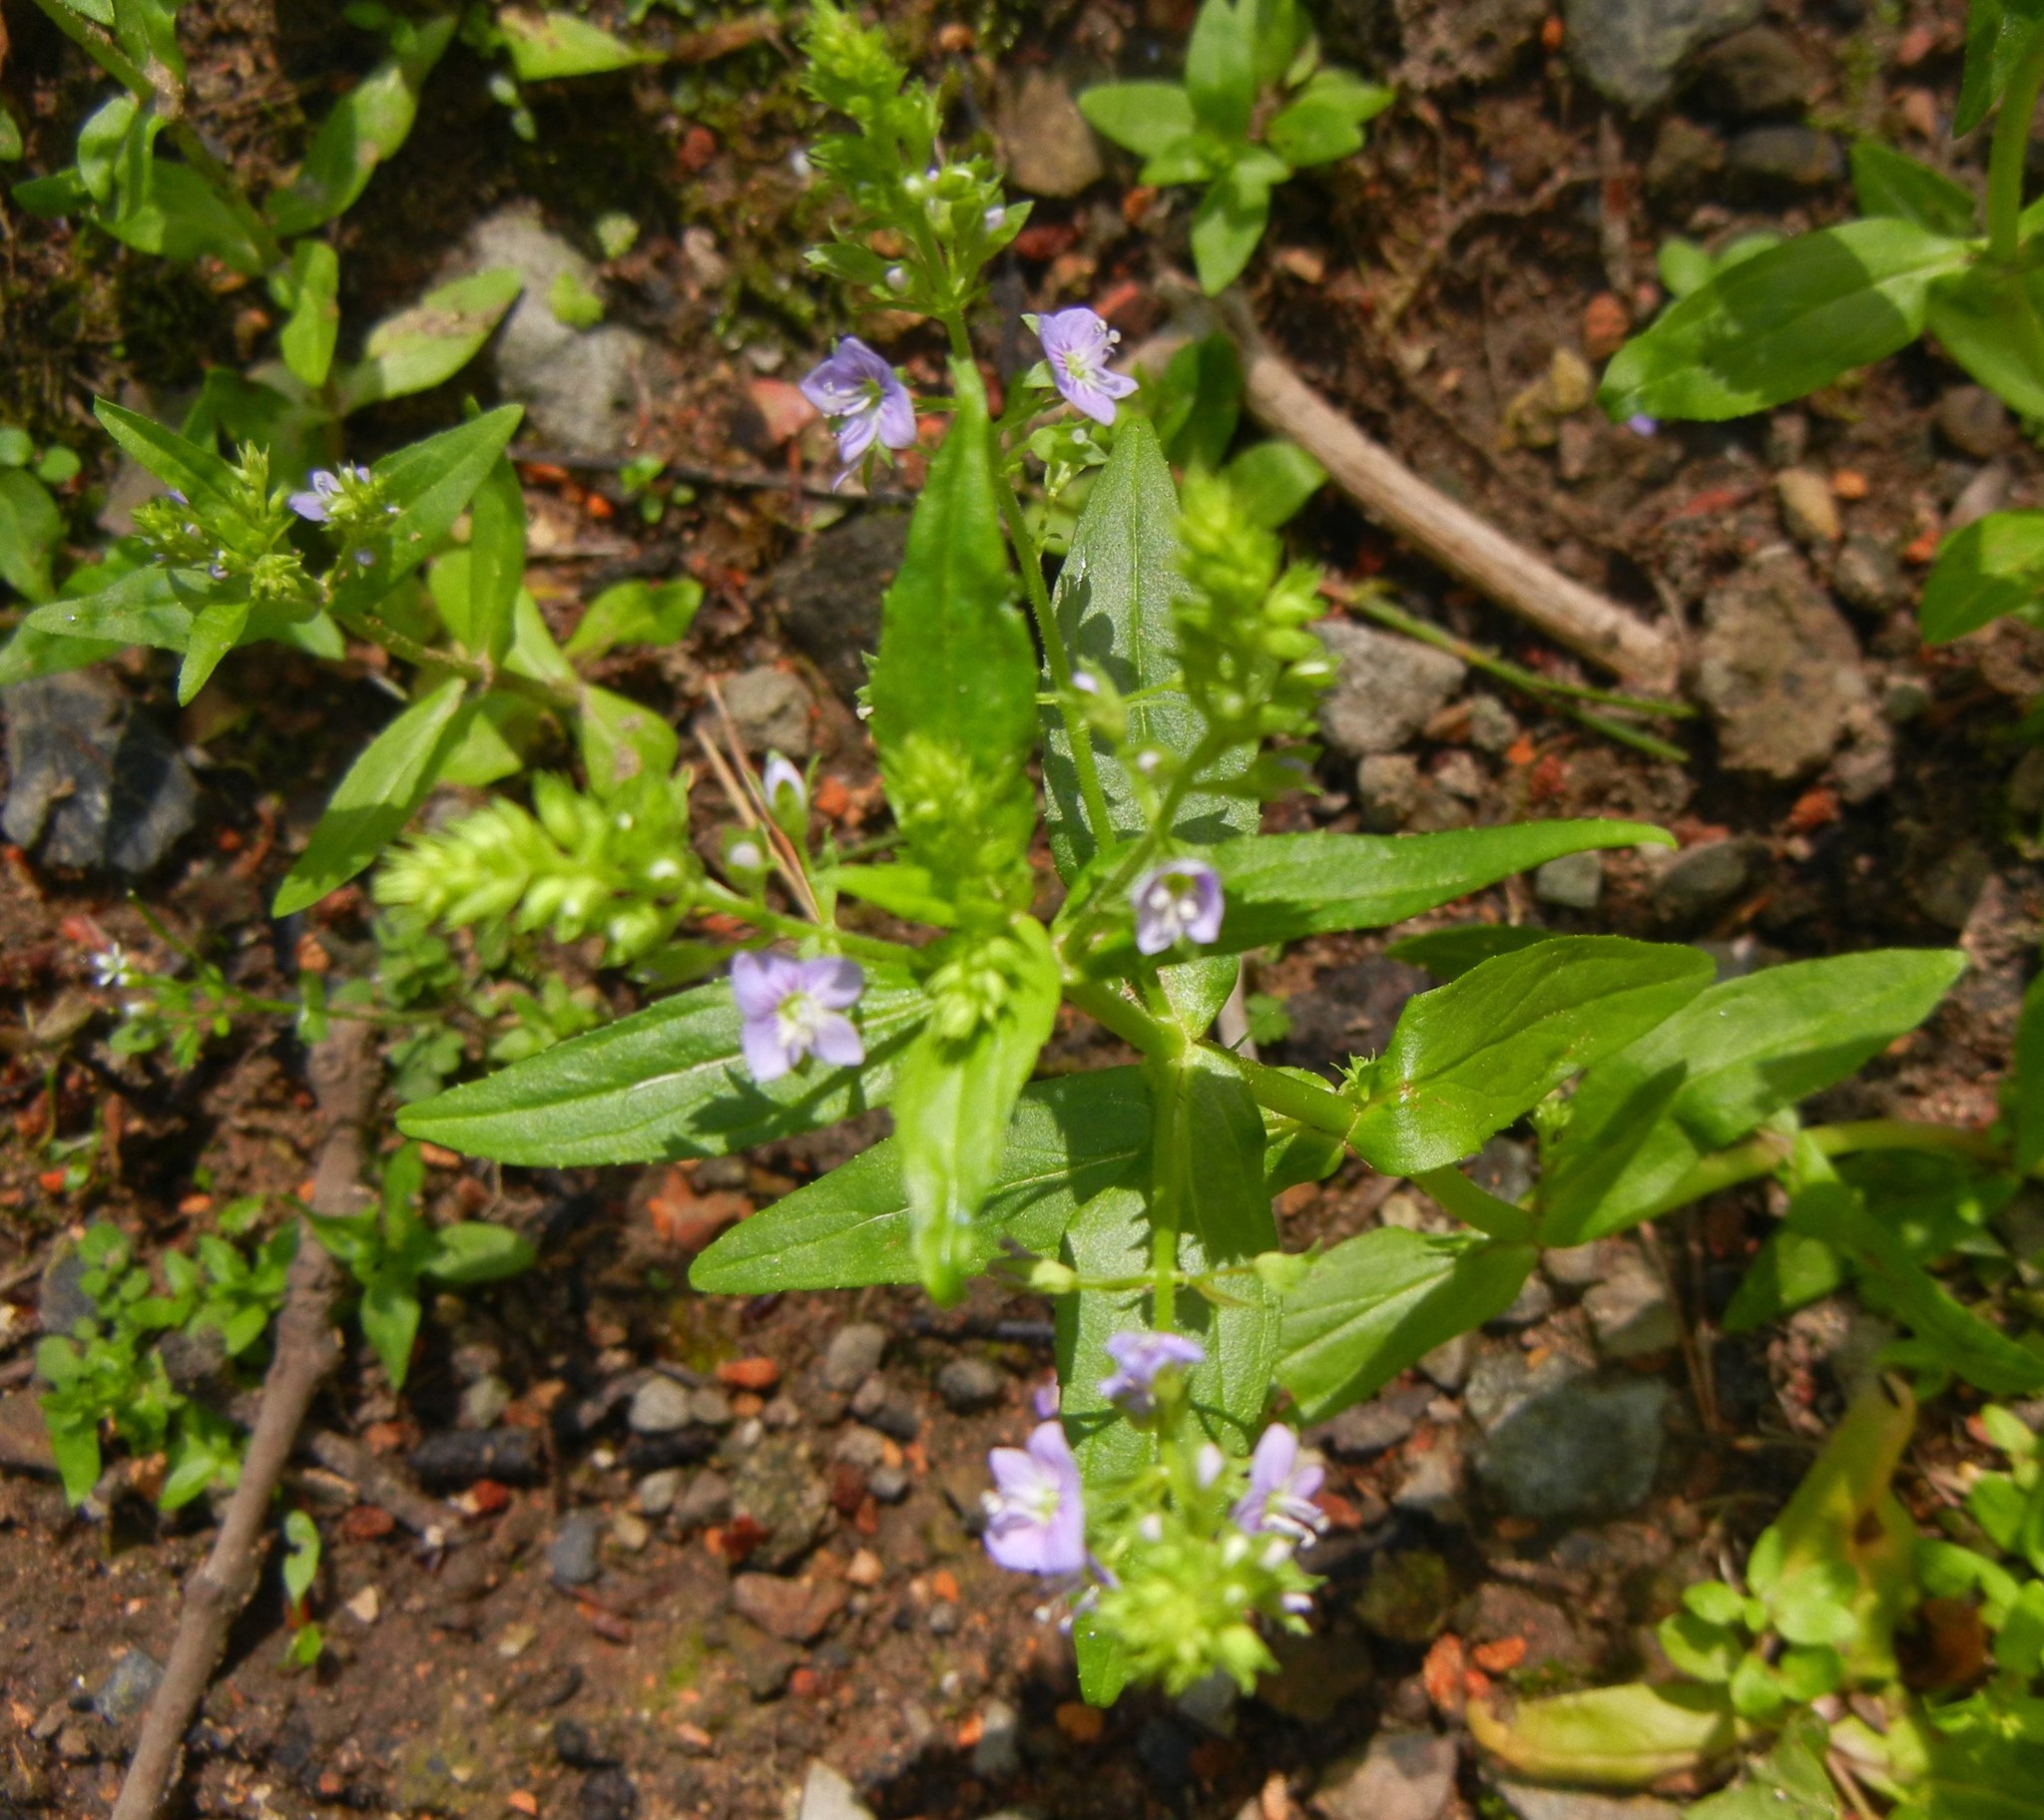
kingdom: Plantae
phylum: Tracheophyta
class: Magnoliopsida
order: Lamiales
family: Plantaginaceae
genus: Veronica
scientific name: Veronica anagallis-aquatica
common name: Water speedwell
